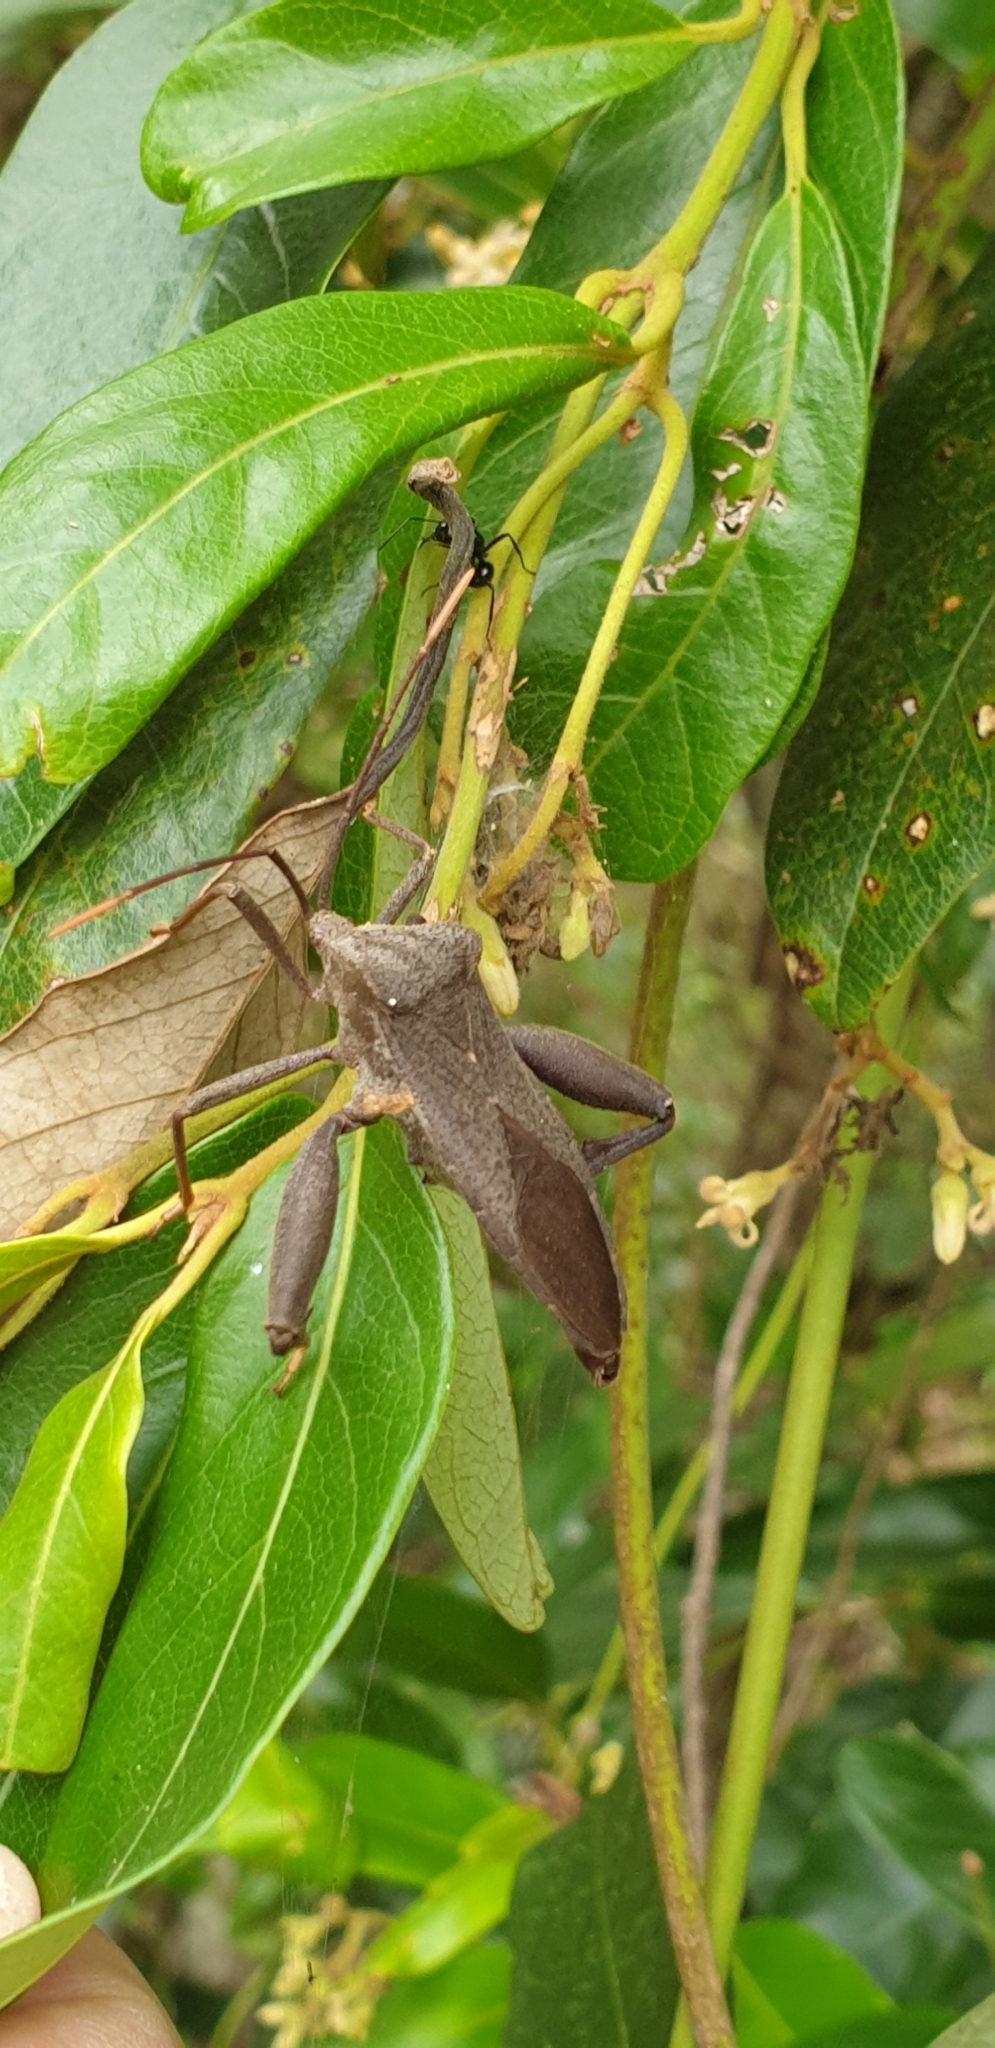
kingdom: Animalia
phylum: Arthropoda
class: Insecta
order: Hemiptera
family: Coreidae
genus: Mictis
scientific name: Mictis caja
